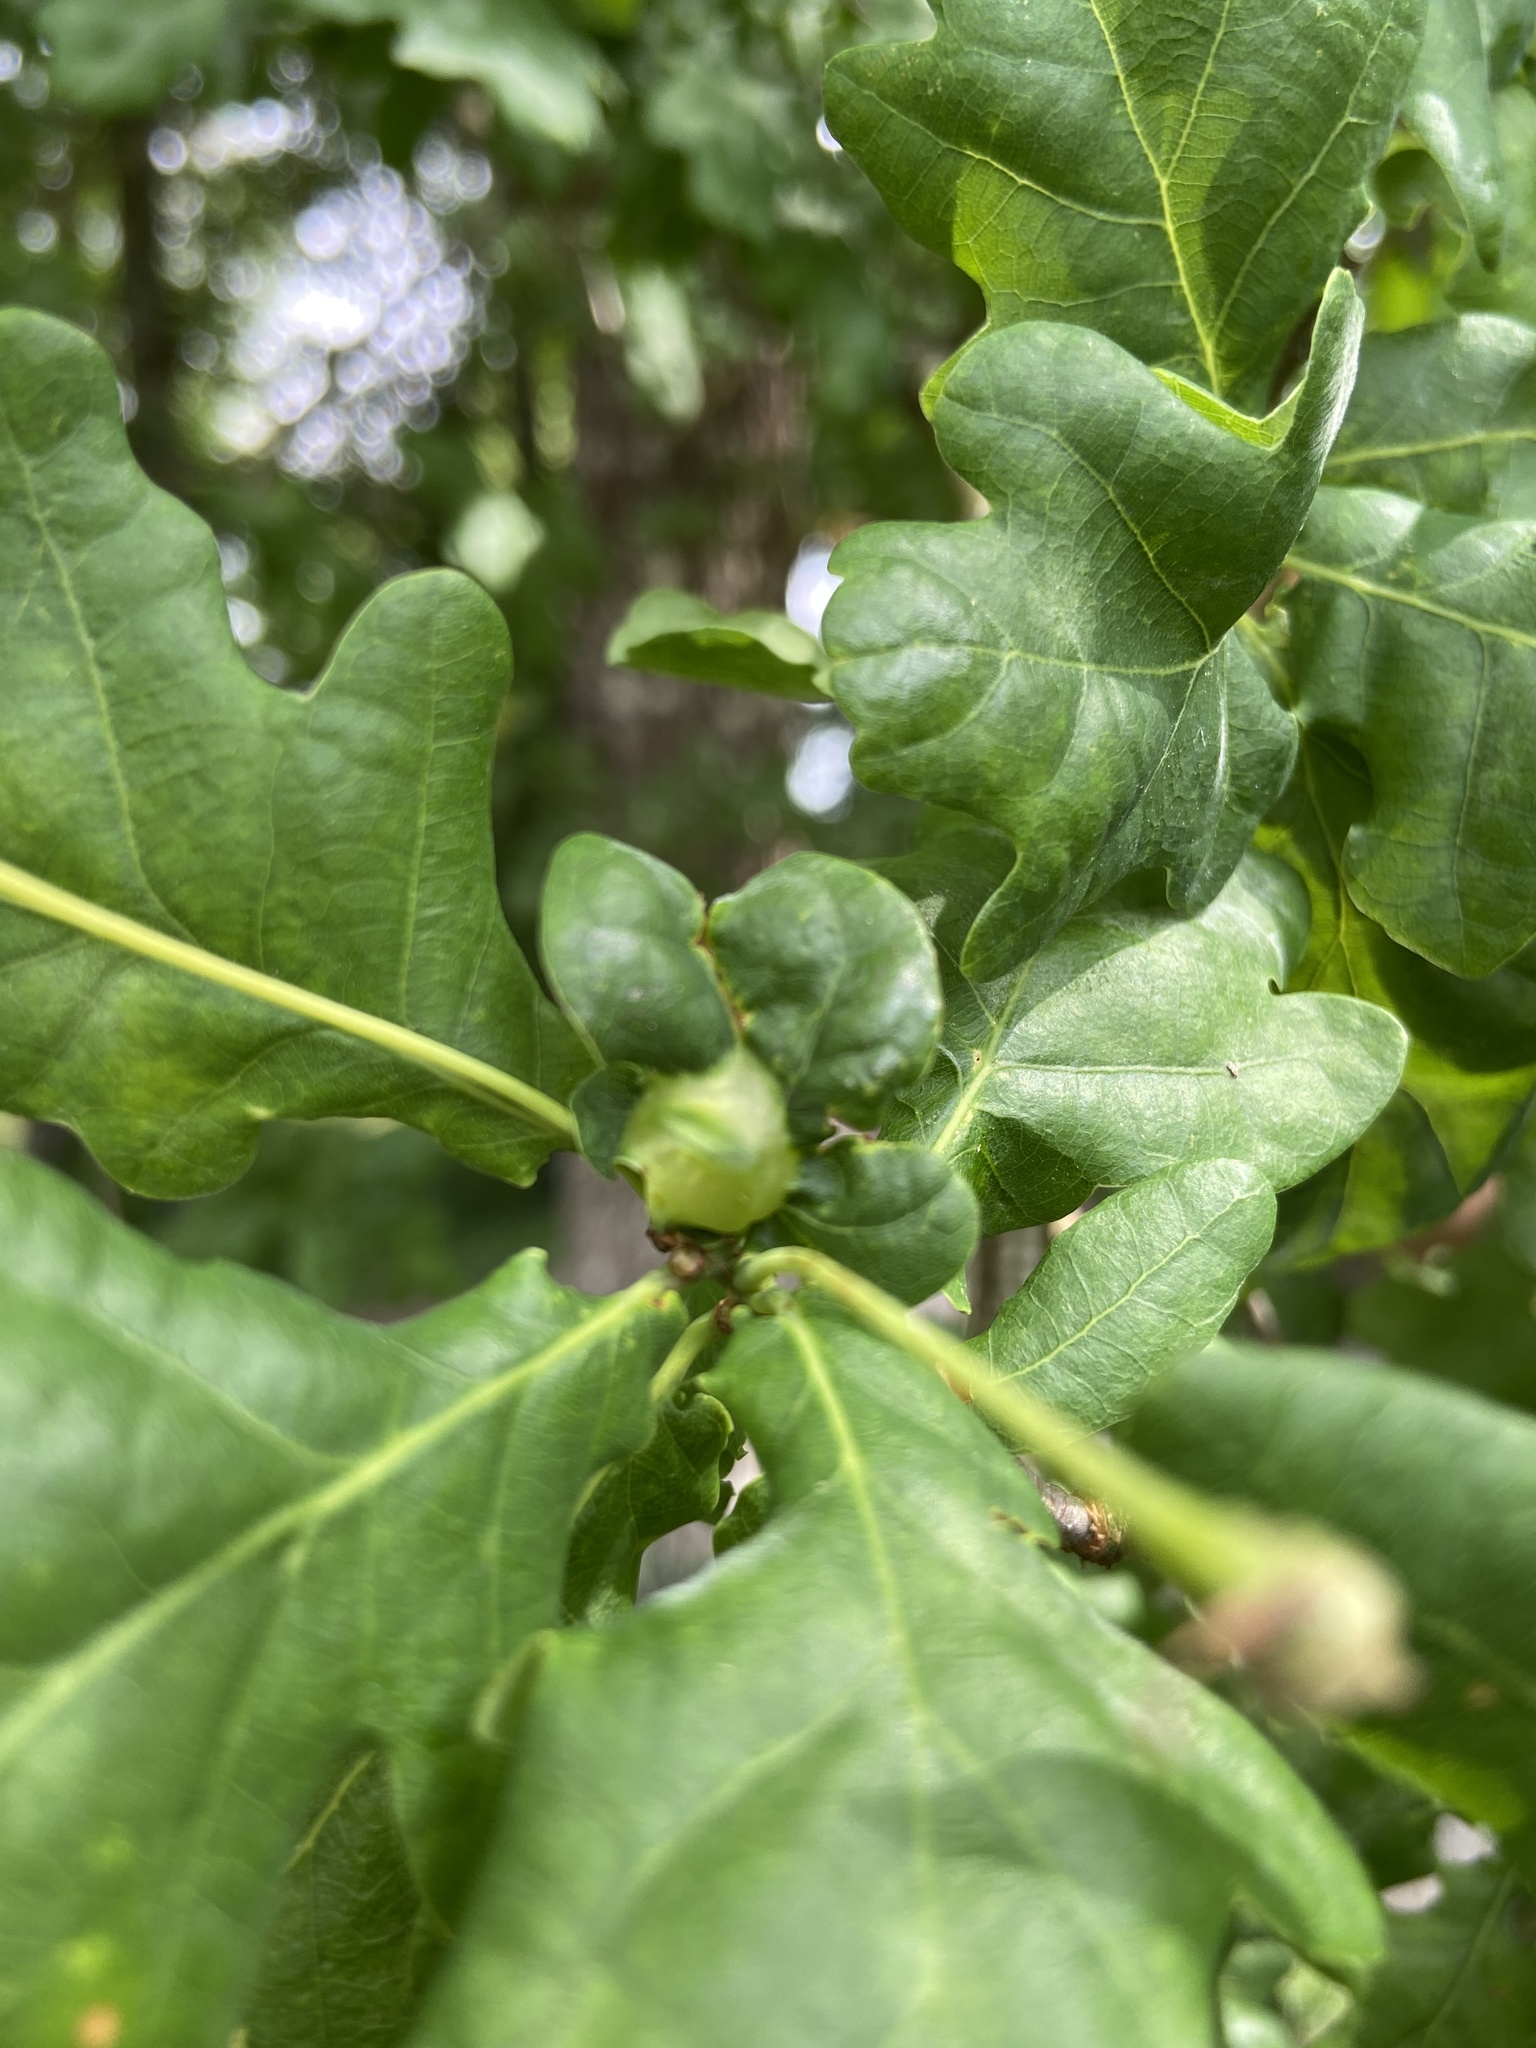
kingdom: Animalia
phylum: Arthropoda
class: Insecta
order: Hymenoptera
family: Cynipidae
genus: Andricus
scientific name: Andricus curvator
